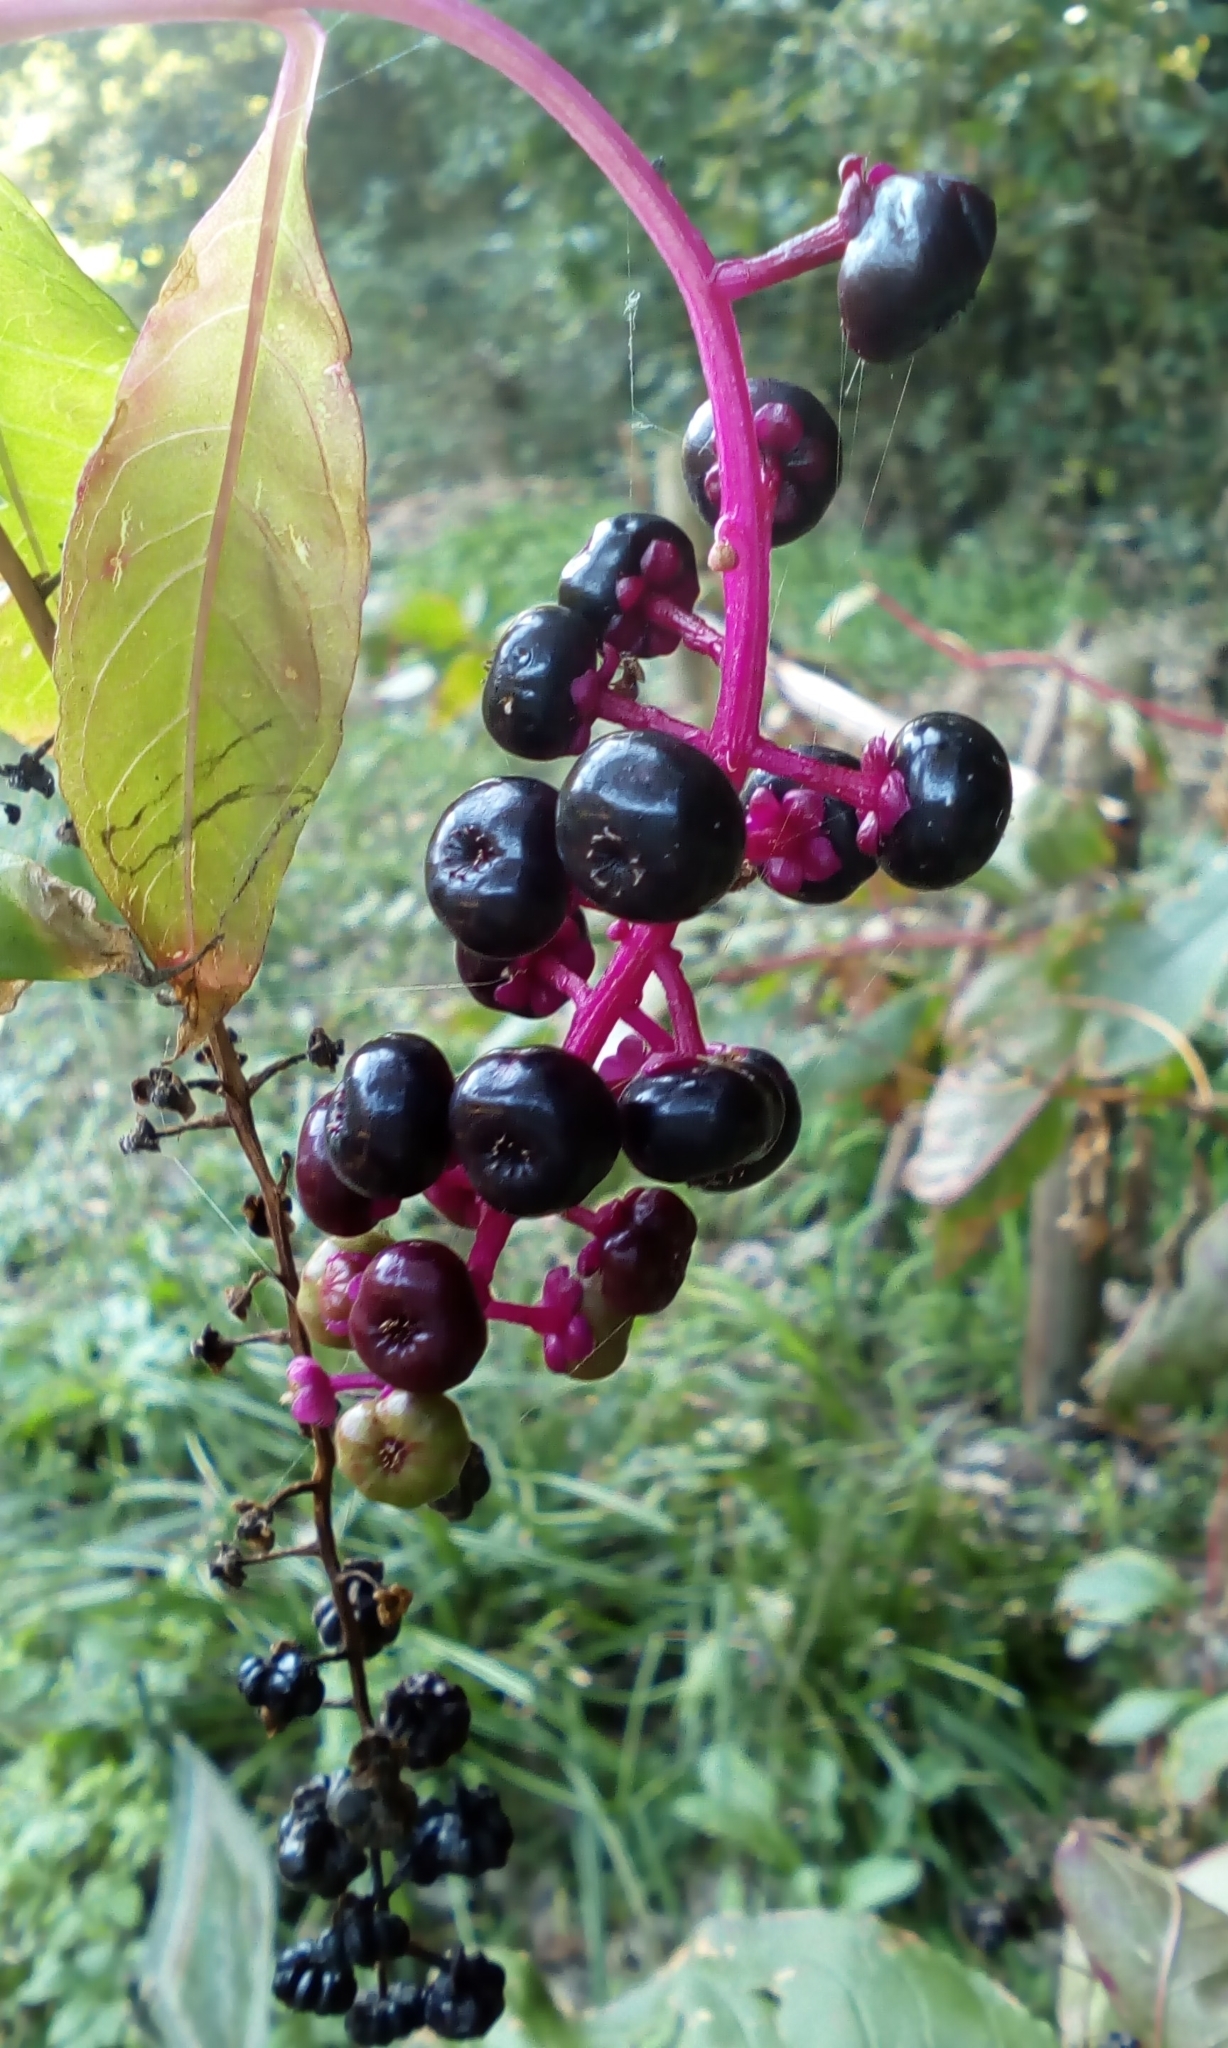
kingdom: Plantae
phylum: Tracheophyta
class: Magnoliopsida
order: Caryophyllales
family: Phytolaccaceae
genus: Phytolacca
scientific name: Phytolacca americana
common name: American pokeweed
